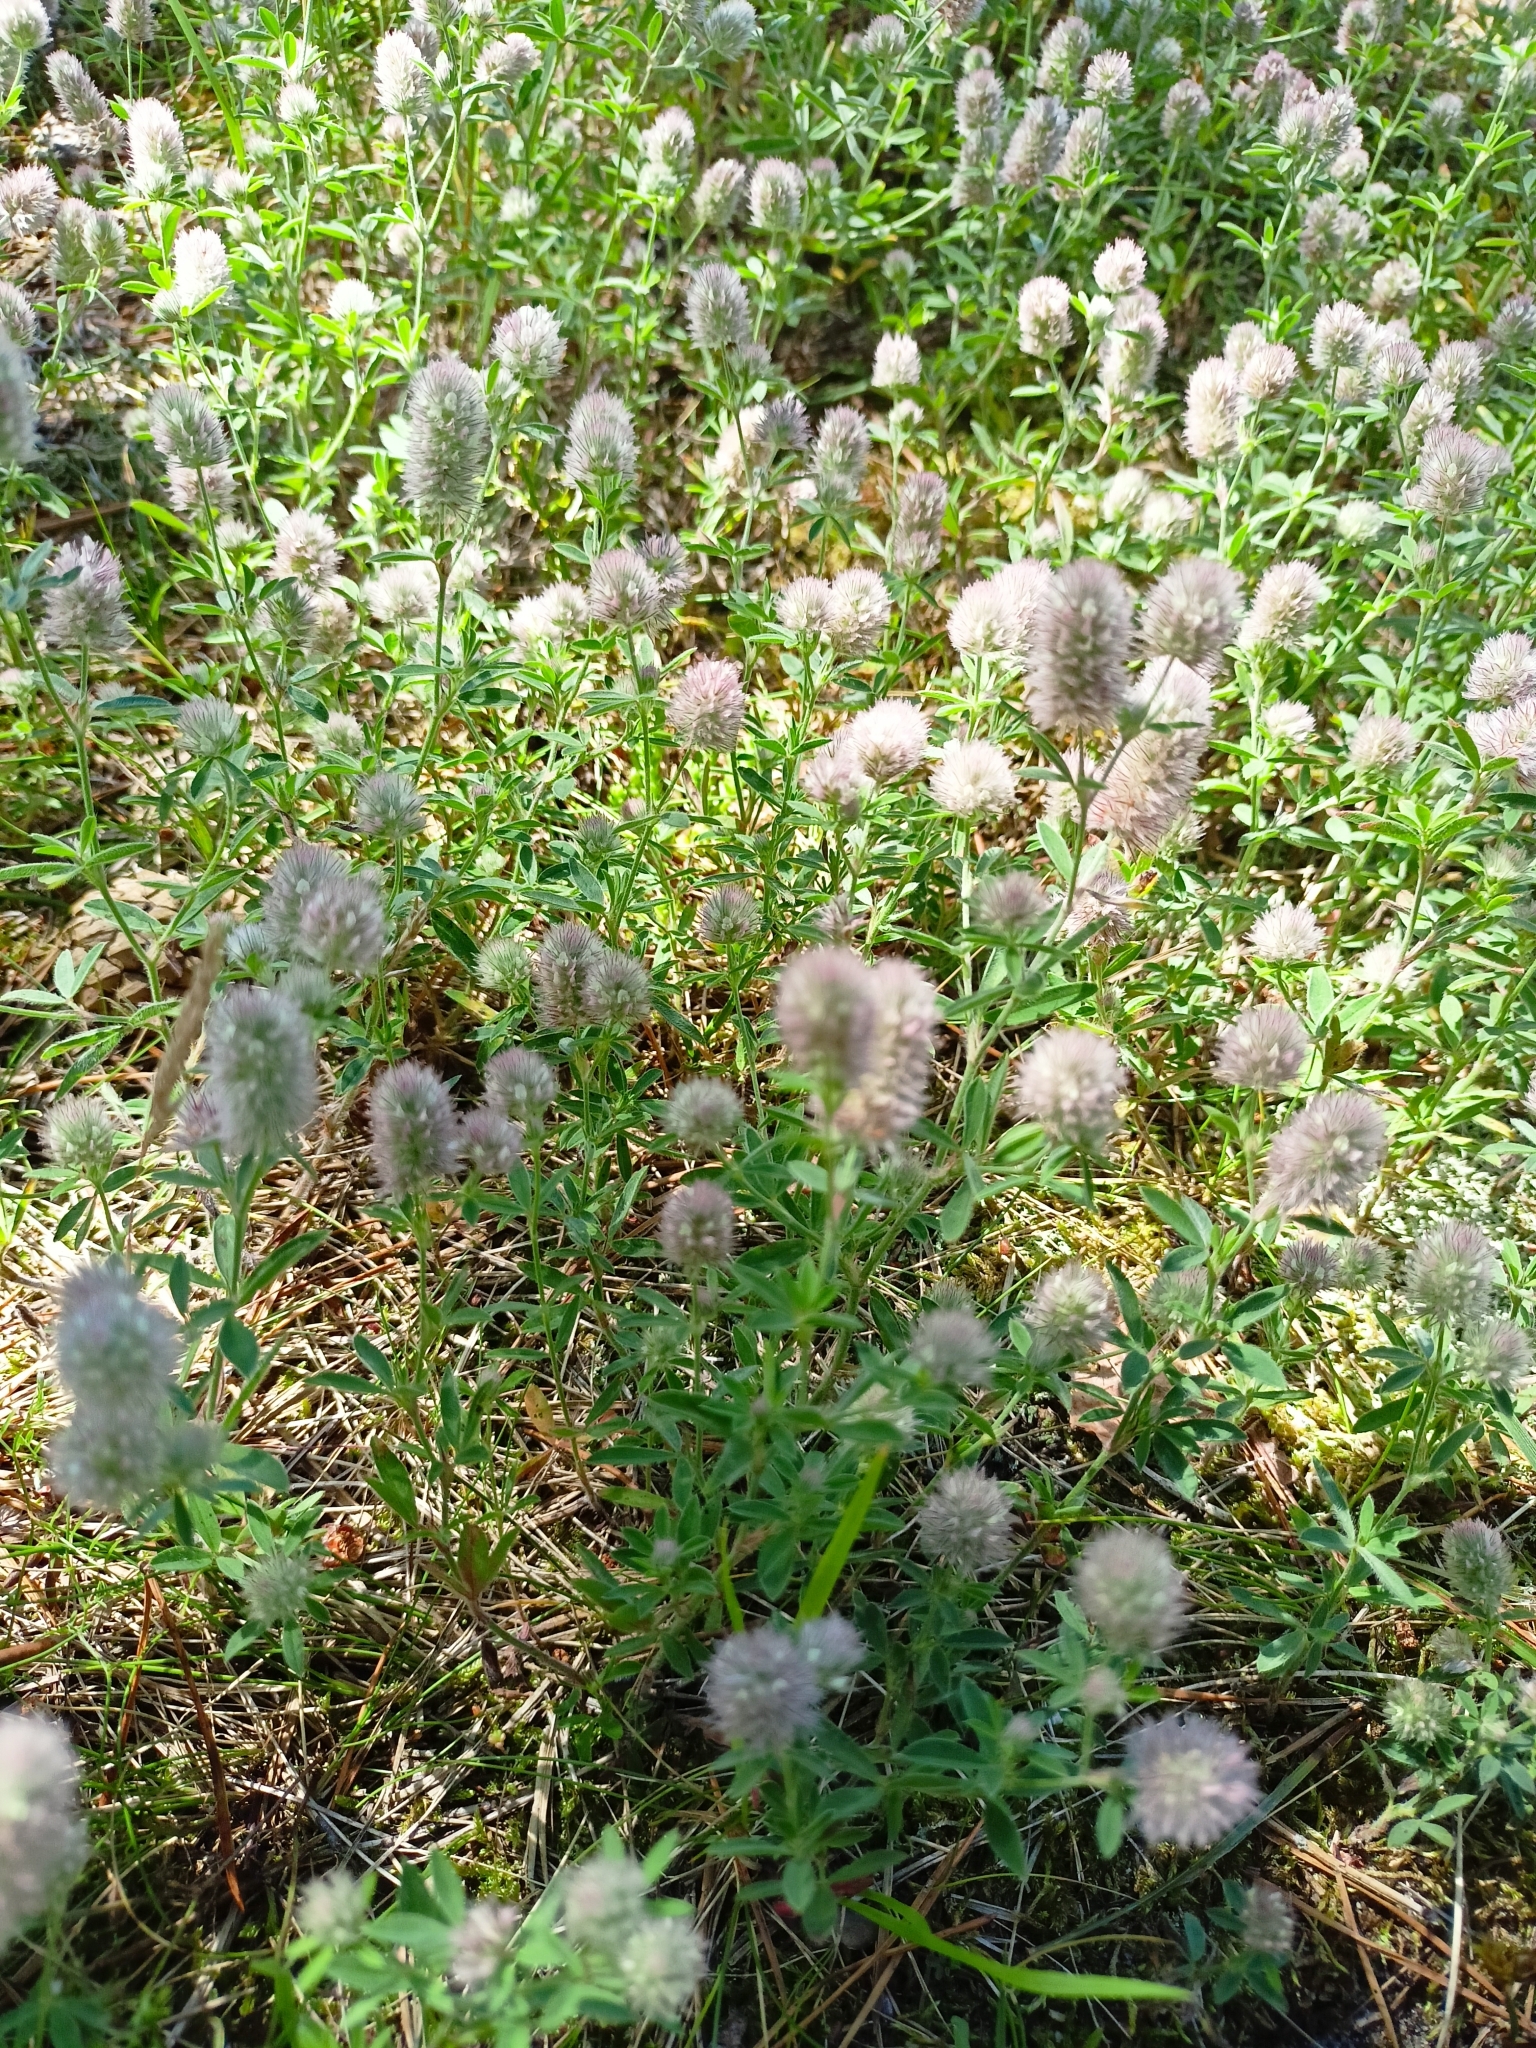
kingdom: Plantae
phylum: Tracheophyta
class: Magnoliopsida
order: Fabales
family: Fabaceae
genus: Trifolium
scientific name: Trifolium arvense
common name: Hare's-foot clover
